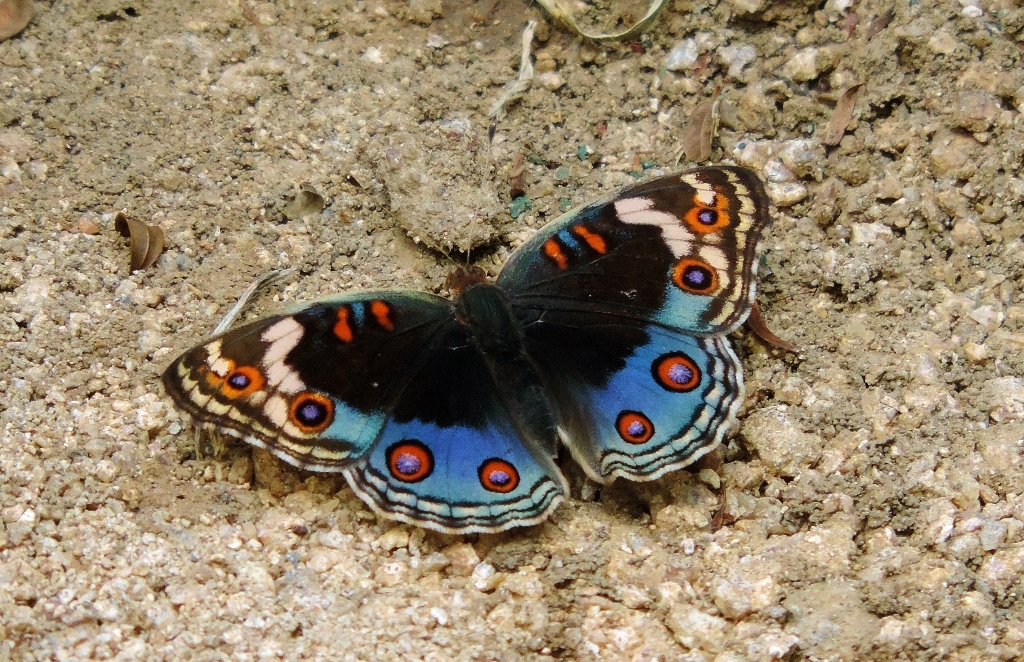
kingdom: Animalia
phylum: Arthropoda
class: Insecta
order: Lepidoptera
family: Nymphalidae
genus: Junonia
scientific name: Junonia orithya
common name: Blue pansy
